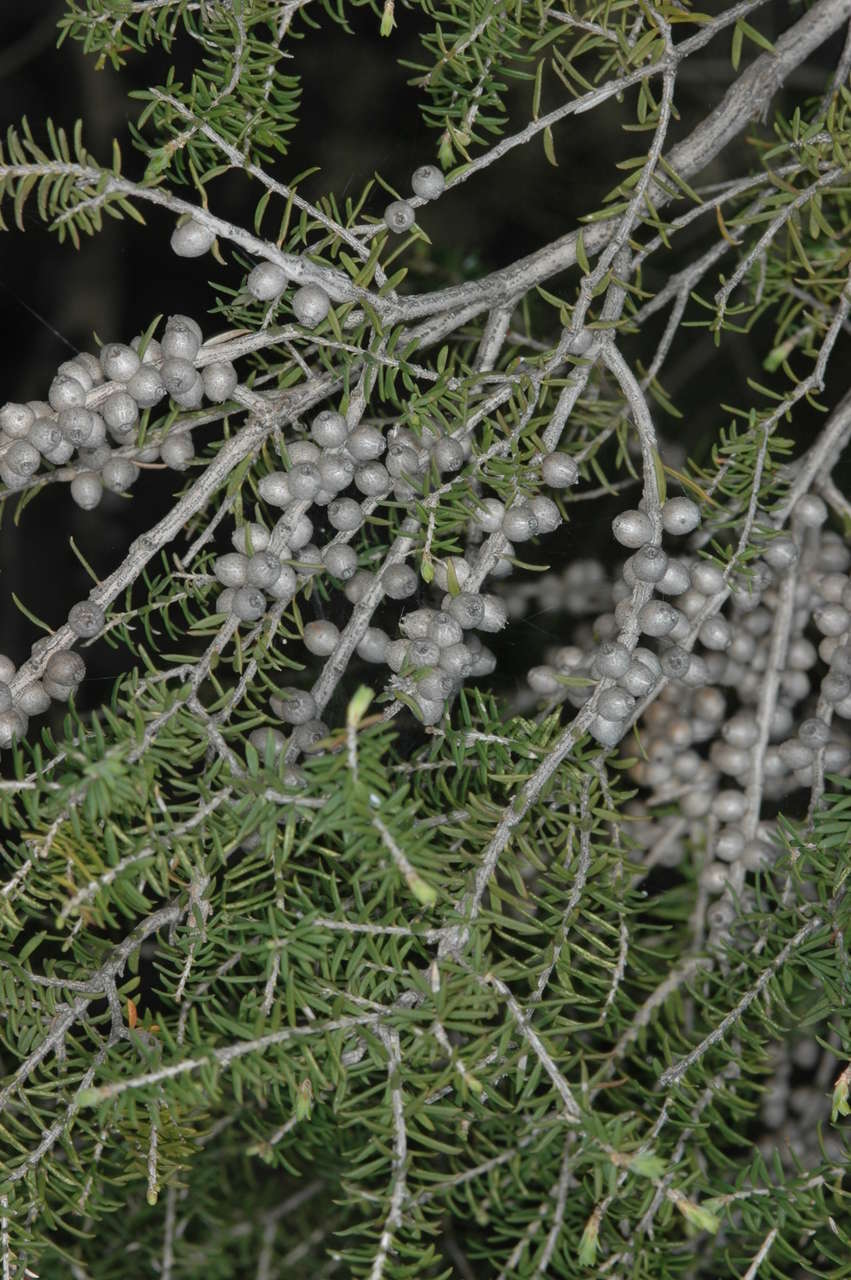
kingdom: Plantae
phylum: Tracheophyta
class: Magnoliopsida
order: Myrtales
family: Myrtaceae
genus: Melaleuca
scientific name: Melaleuca lanceolata
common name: Rottnest island teatree
